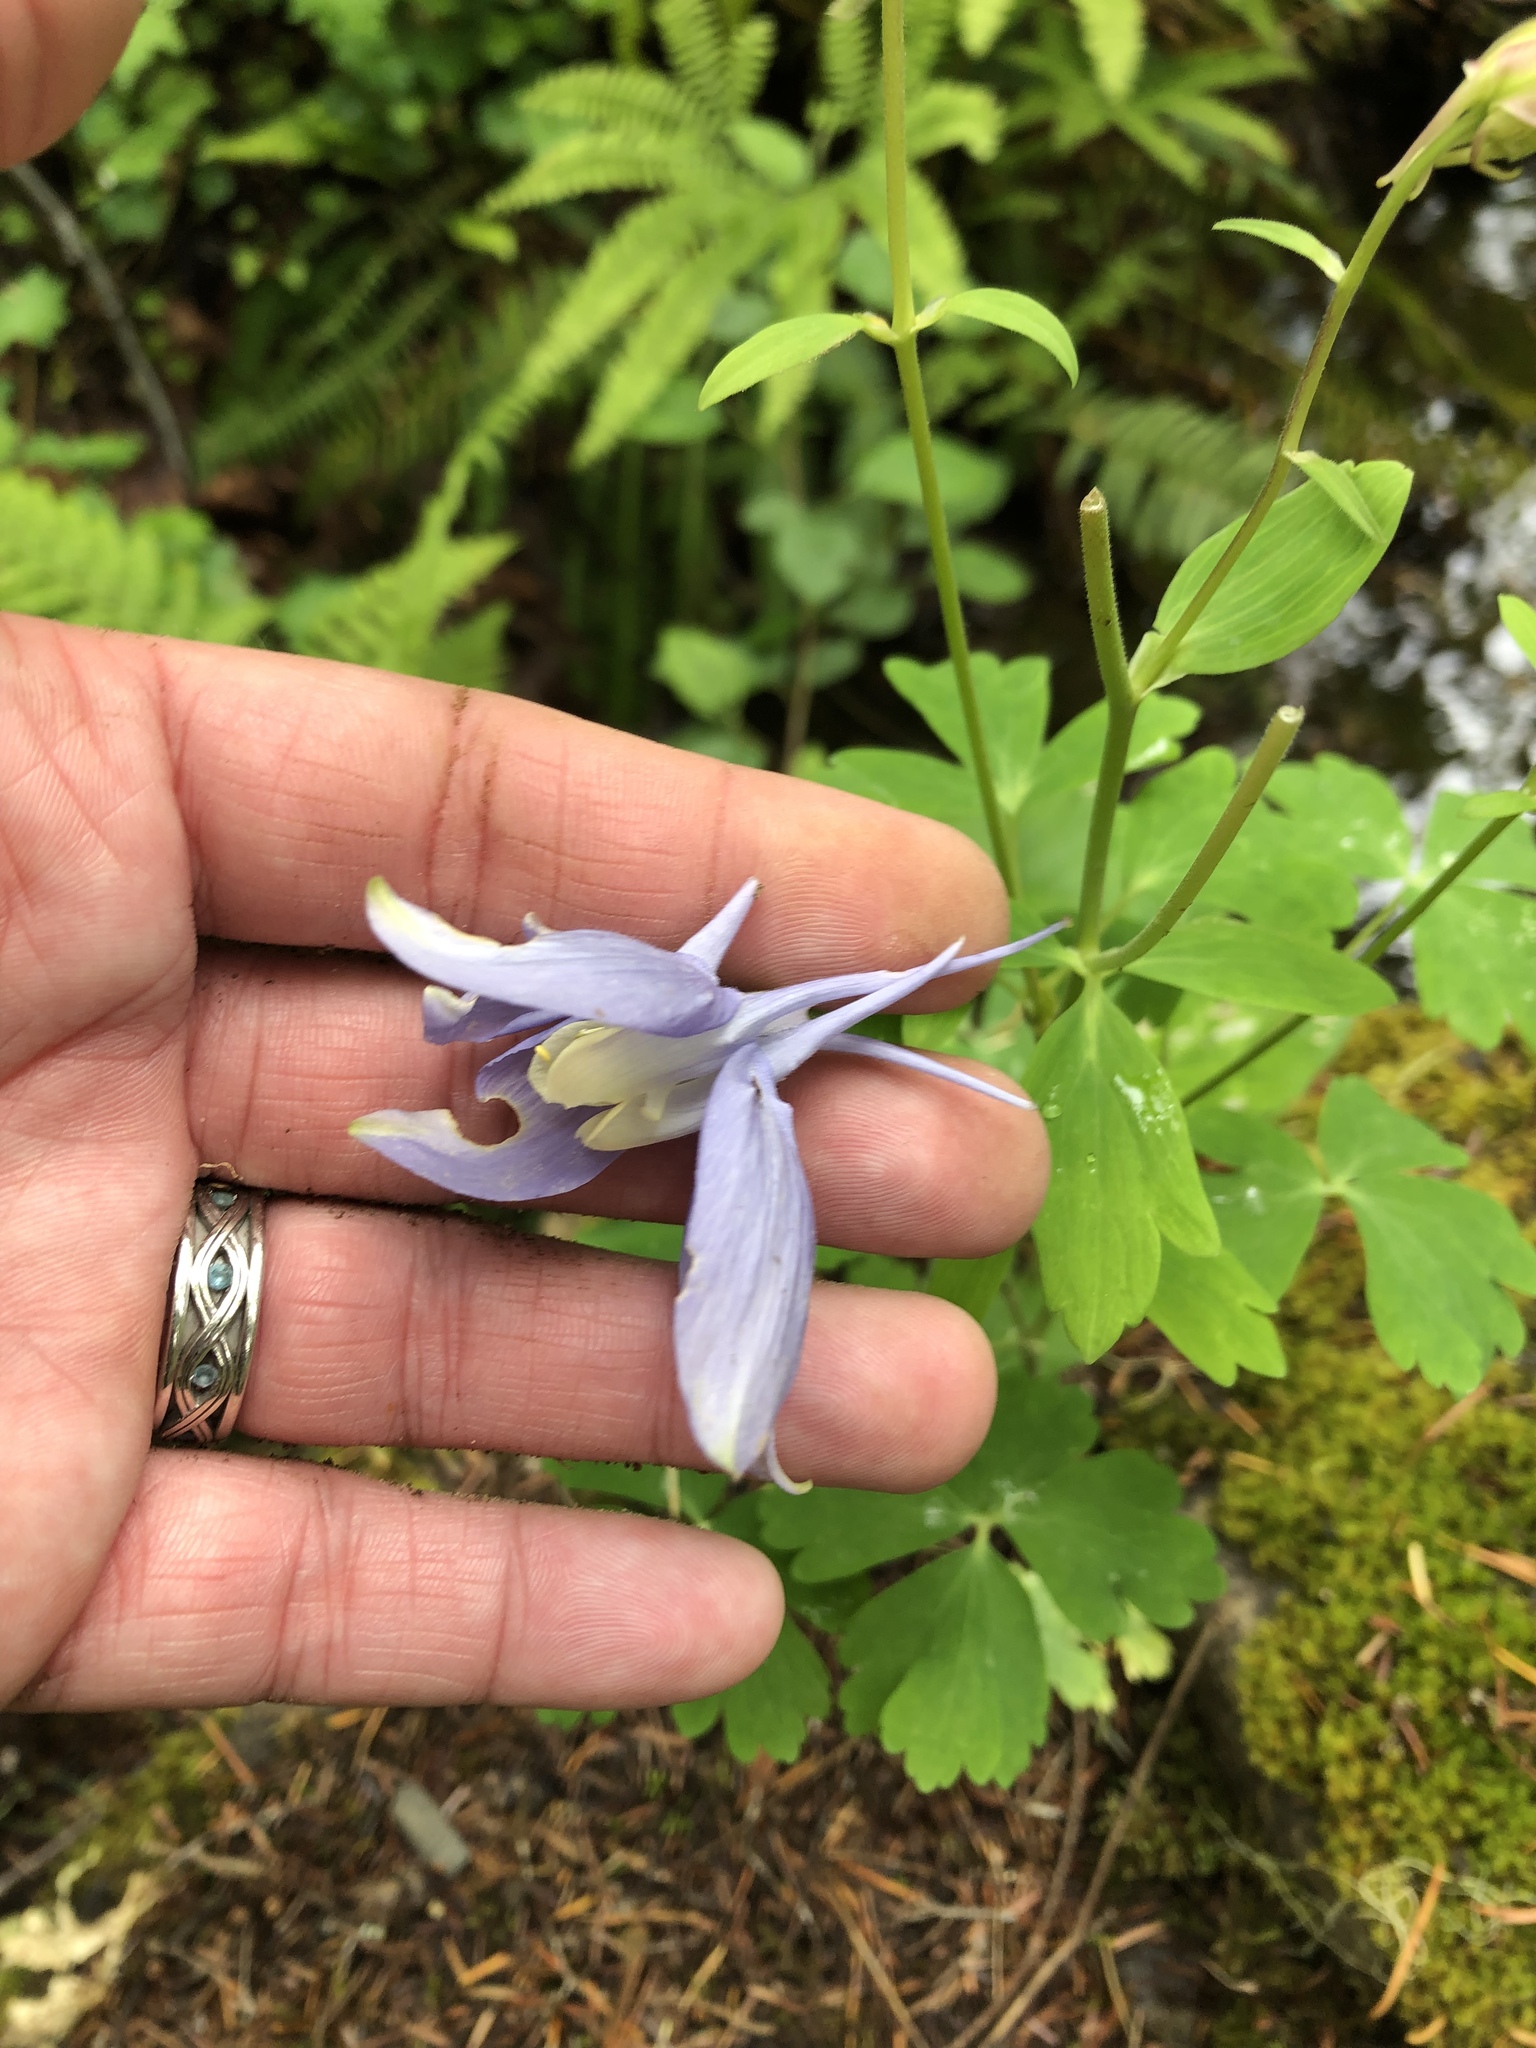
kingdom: Plantae
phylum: Tracheophyta
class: Magnoliopsida
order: Ranunculales
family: Ranunculaceae
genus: Aquilegia
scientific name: Aquilegia coerulea
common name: Rocky mountain columbine
